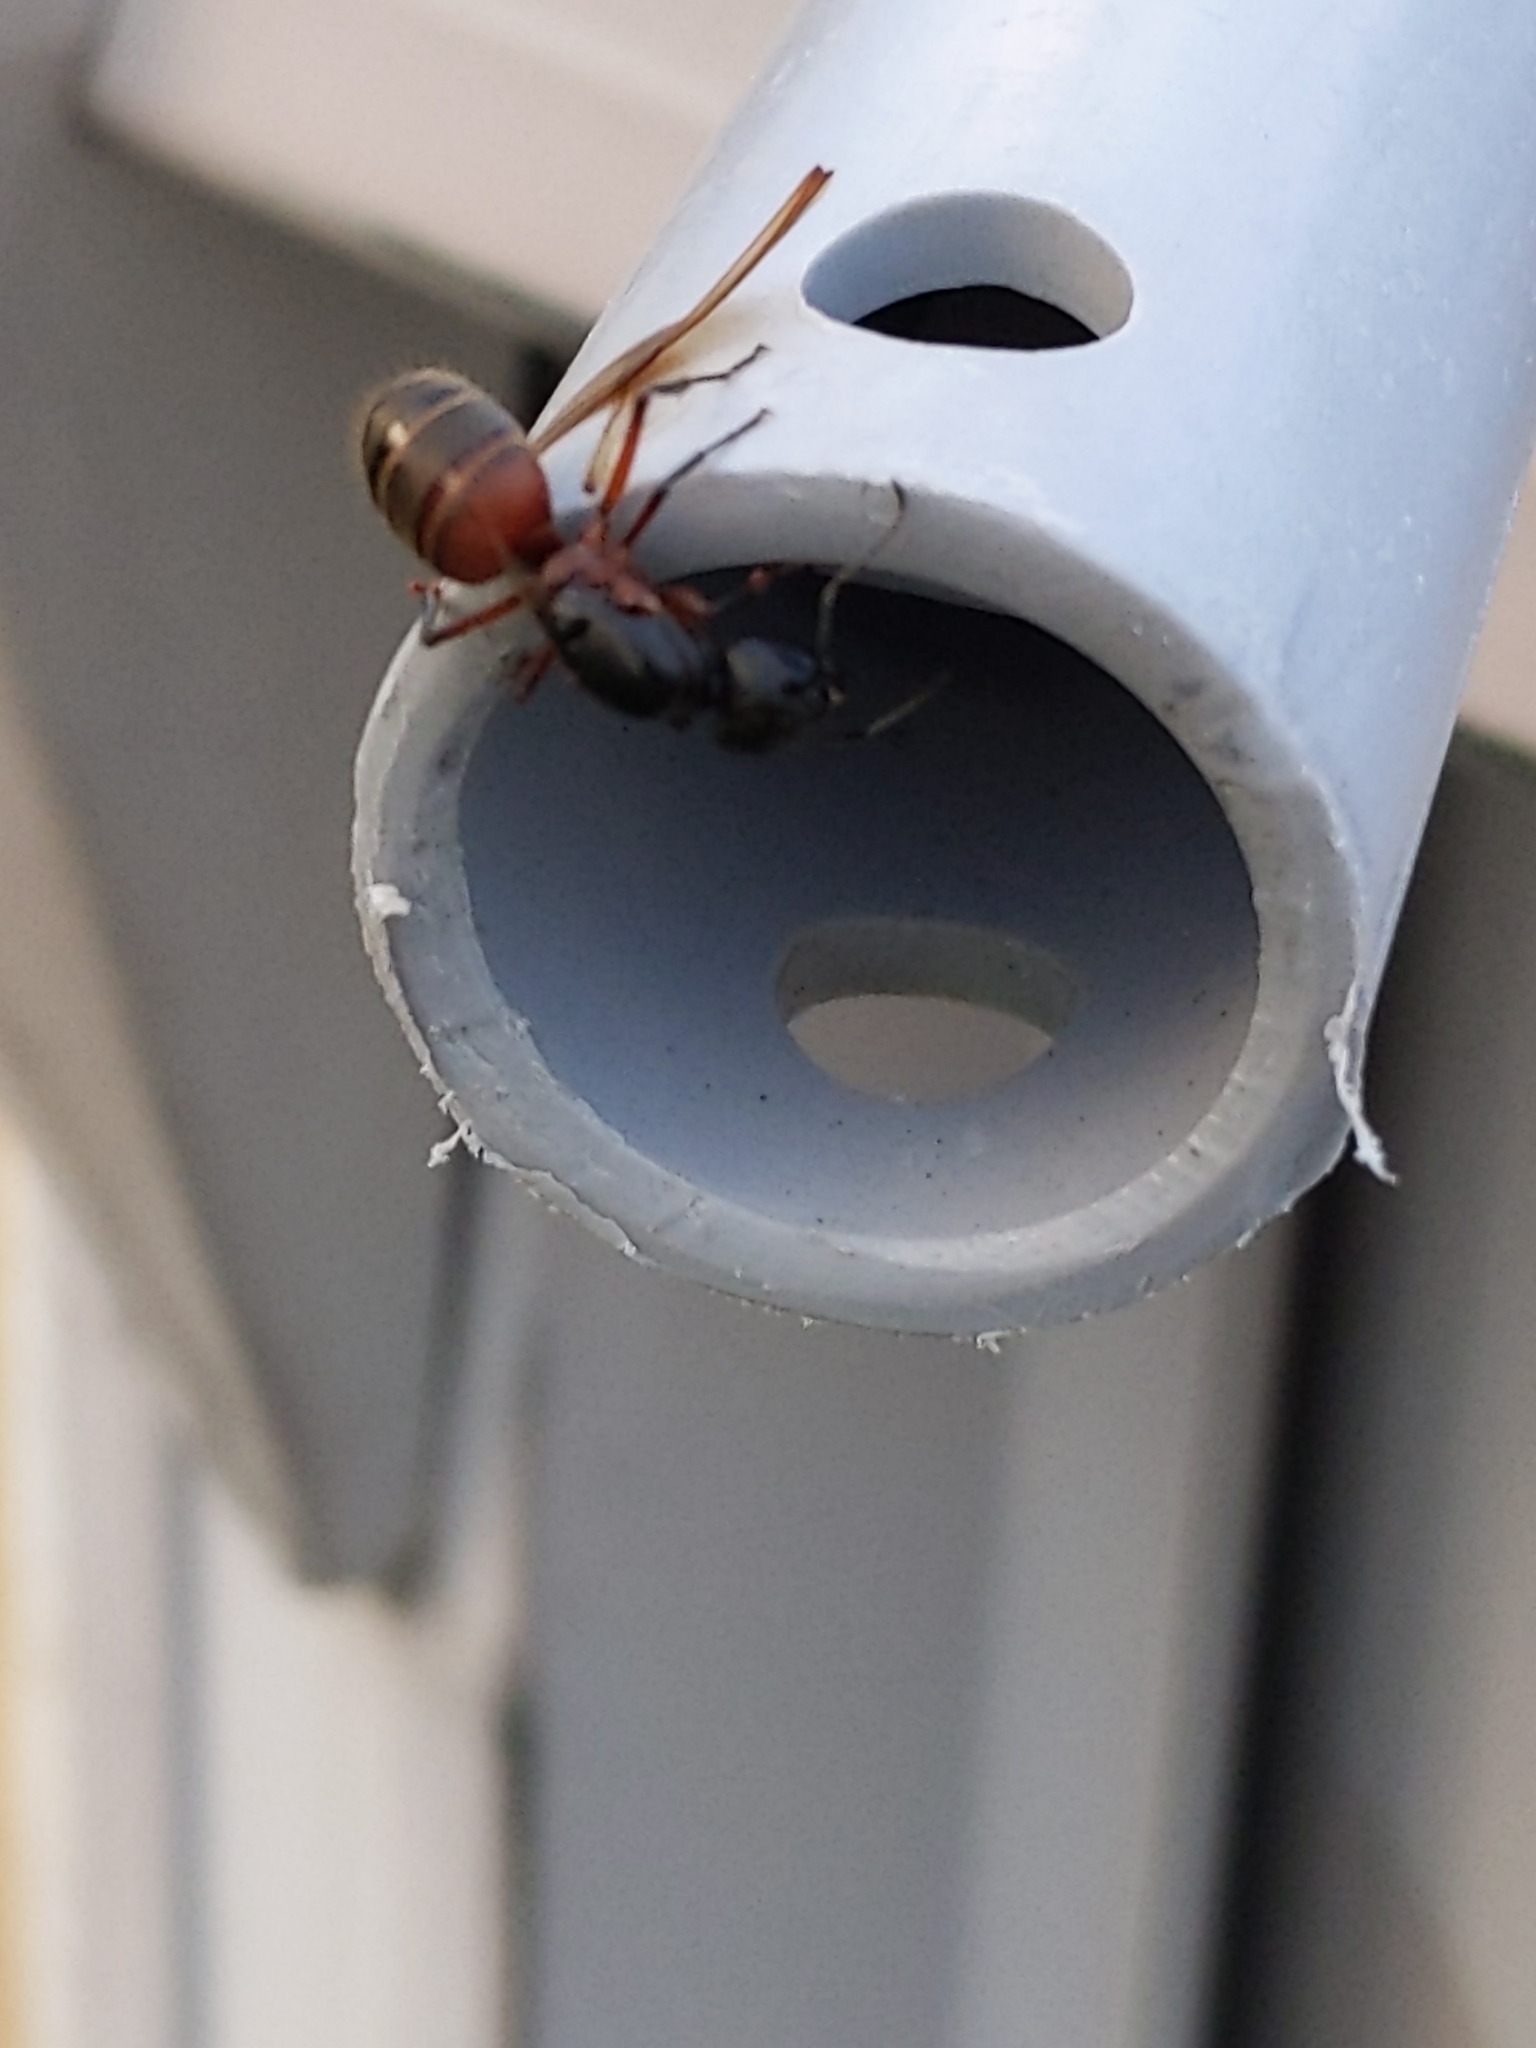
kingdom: Animalia
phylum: Arthropoda
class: Insecta
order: Hymenoptera
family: Formicidae
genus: Camponotus
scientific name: Camponotus chromaiodes
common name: Red carpenter ant
